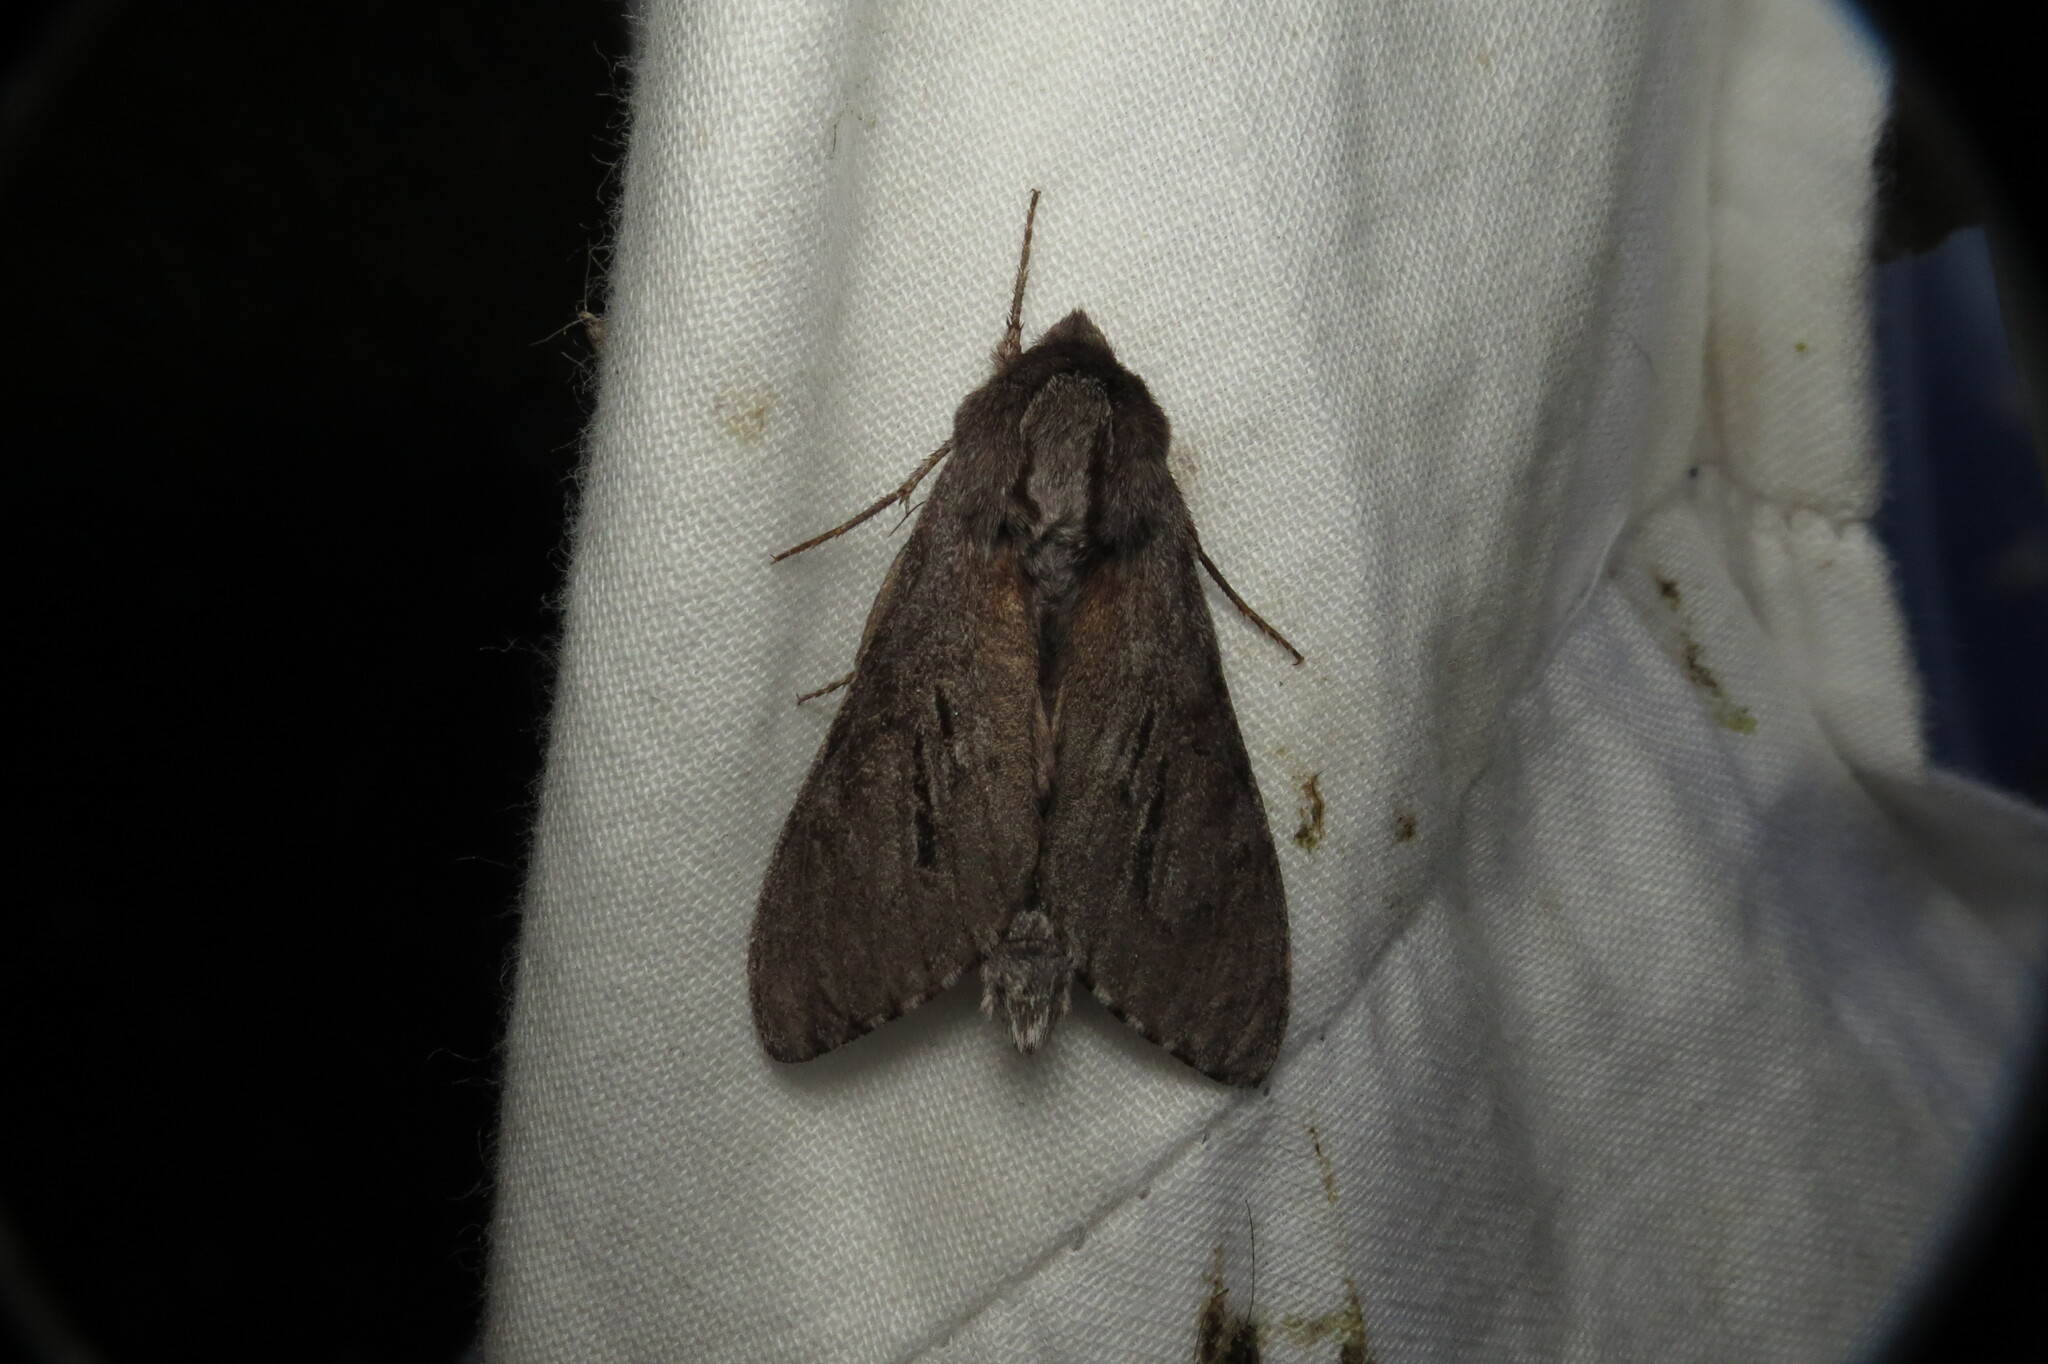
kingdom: Animalia
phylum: Arthropoda
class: Insecta
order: Lepidoptera
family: Sphingidae
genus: Lapara
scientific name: Lapara coniferarum
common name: Southern pine sphinx
